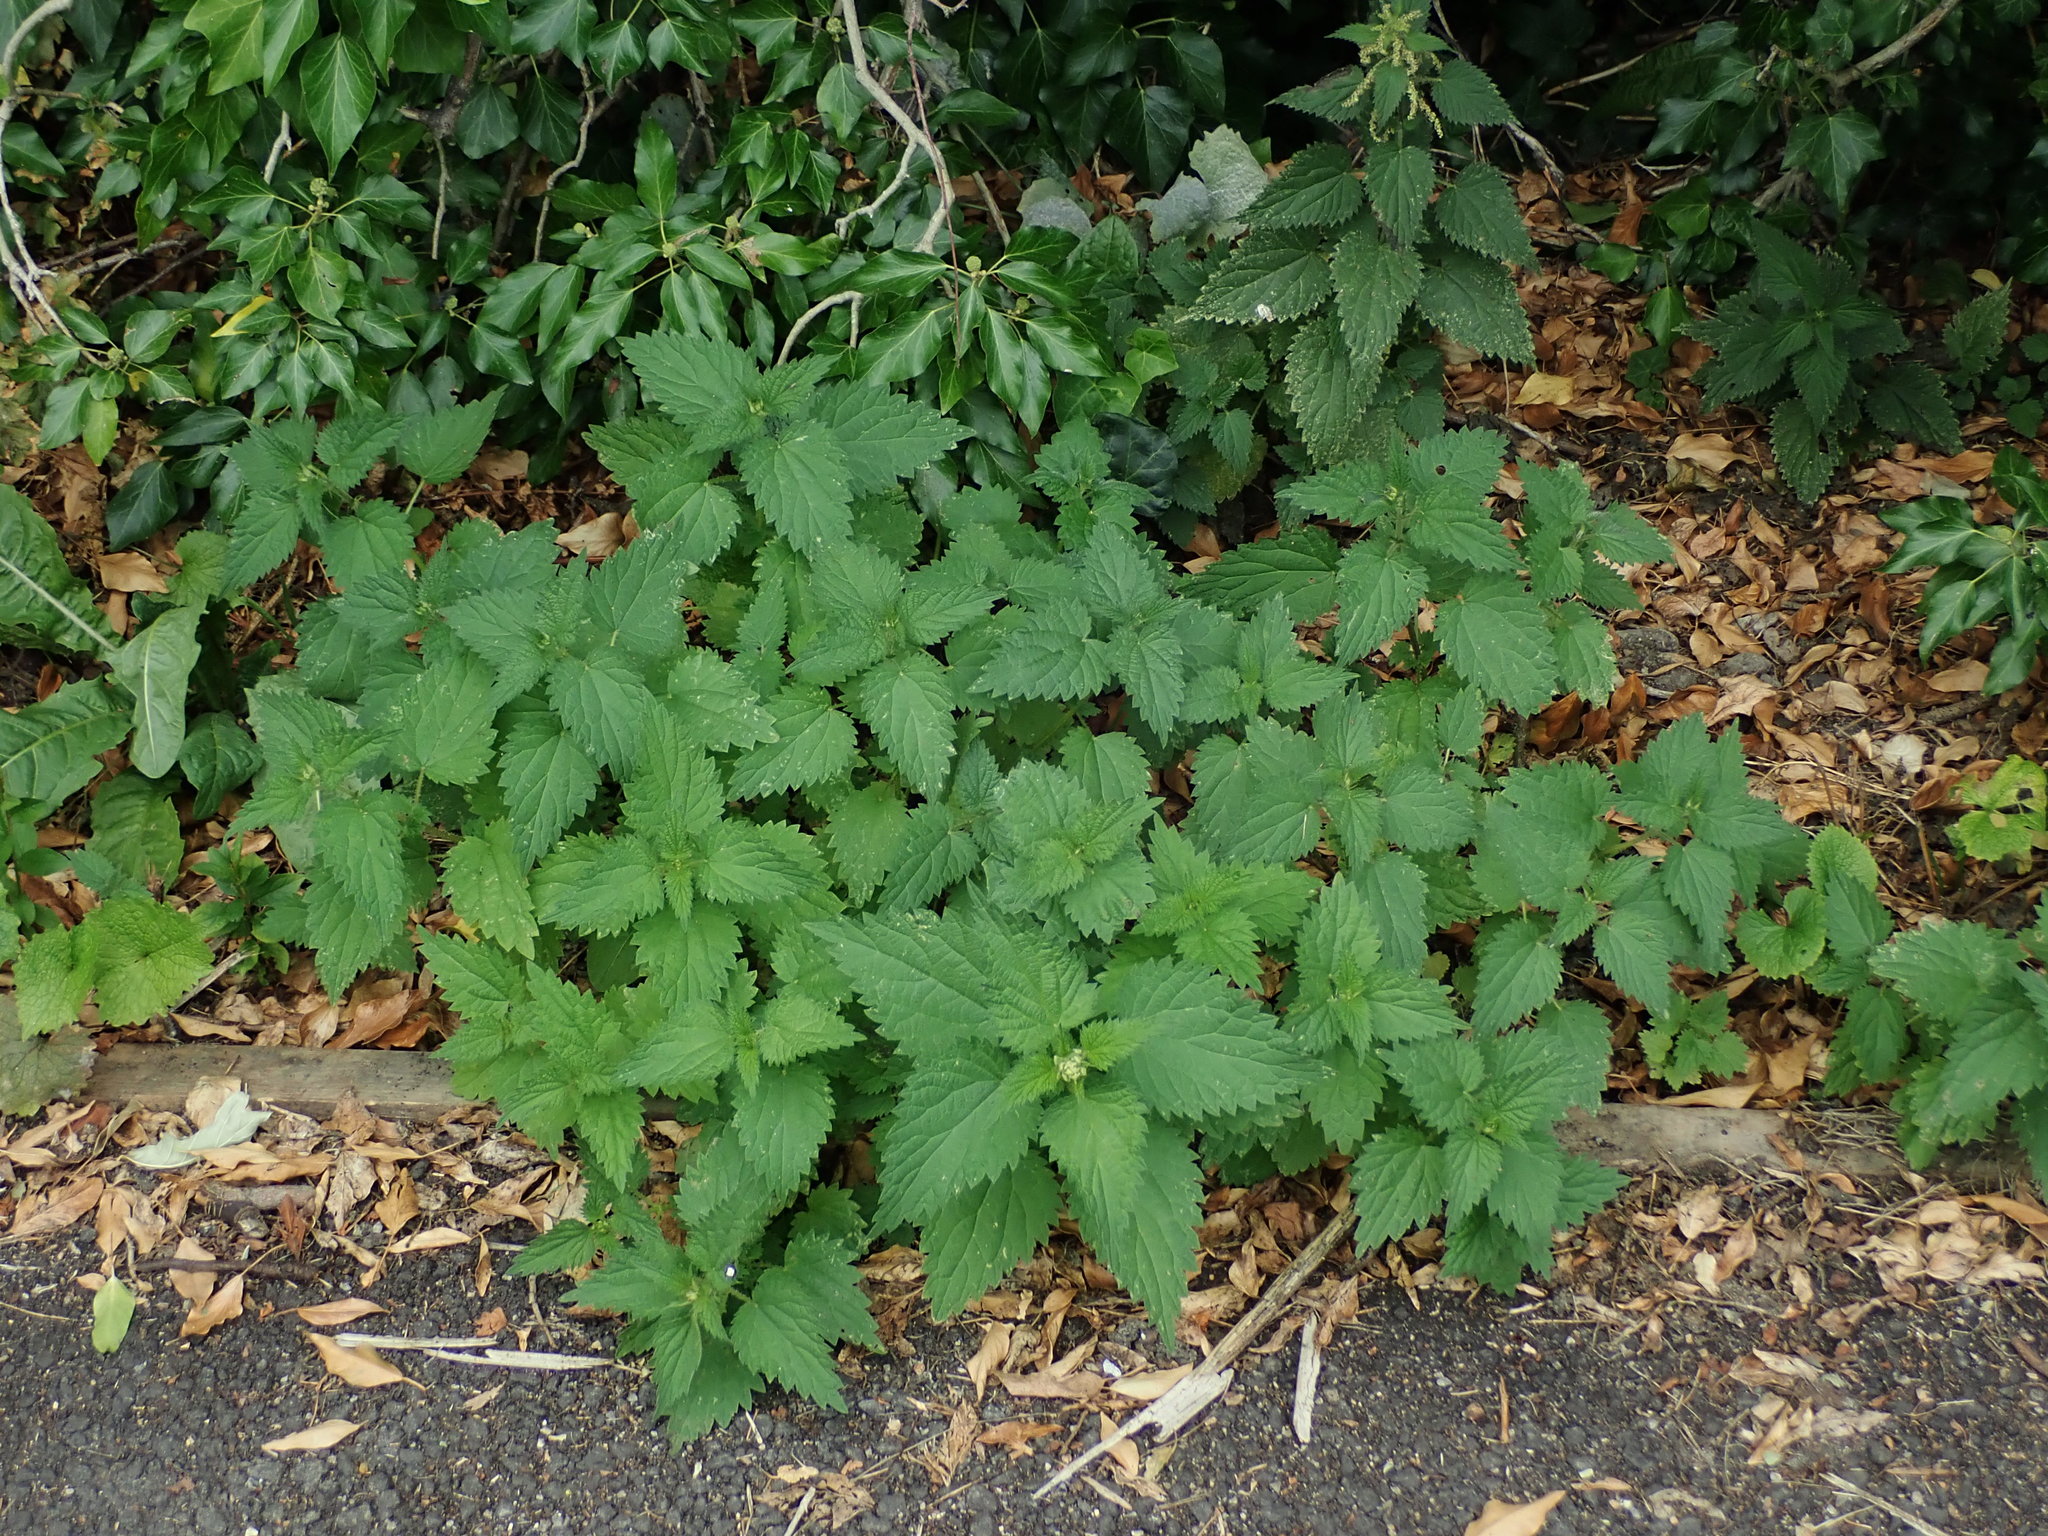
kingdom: Plantae
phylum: Tracheophyta
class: Magnoliopsida
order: Rosales
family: Urticaceae
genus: Urtica
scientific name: Urtica dioica
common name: Common nettle
